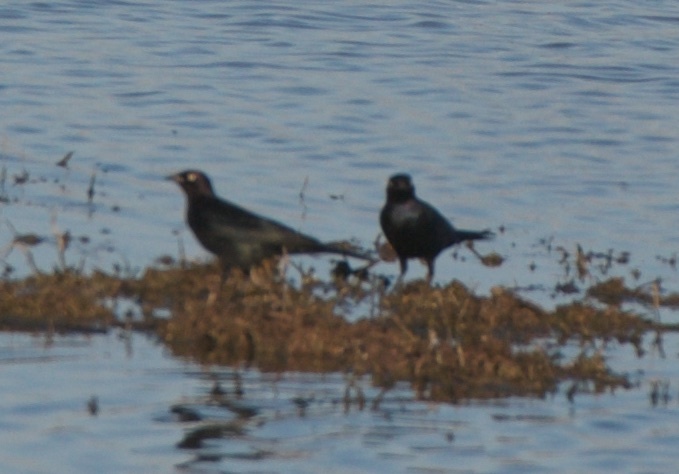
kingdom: Animalia
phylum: Chordata
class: Aves
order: Passeriformes
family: Icteridae
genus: Euphagus
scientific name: Euphagus cyanocephalus
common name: Brewer's blackbird
